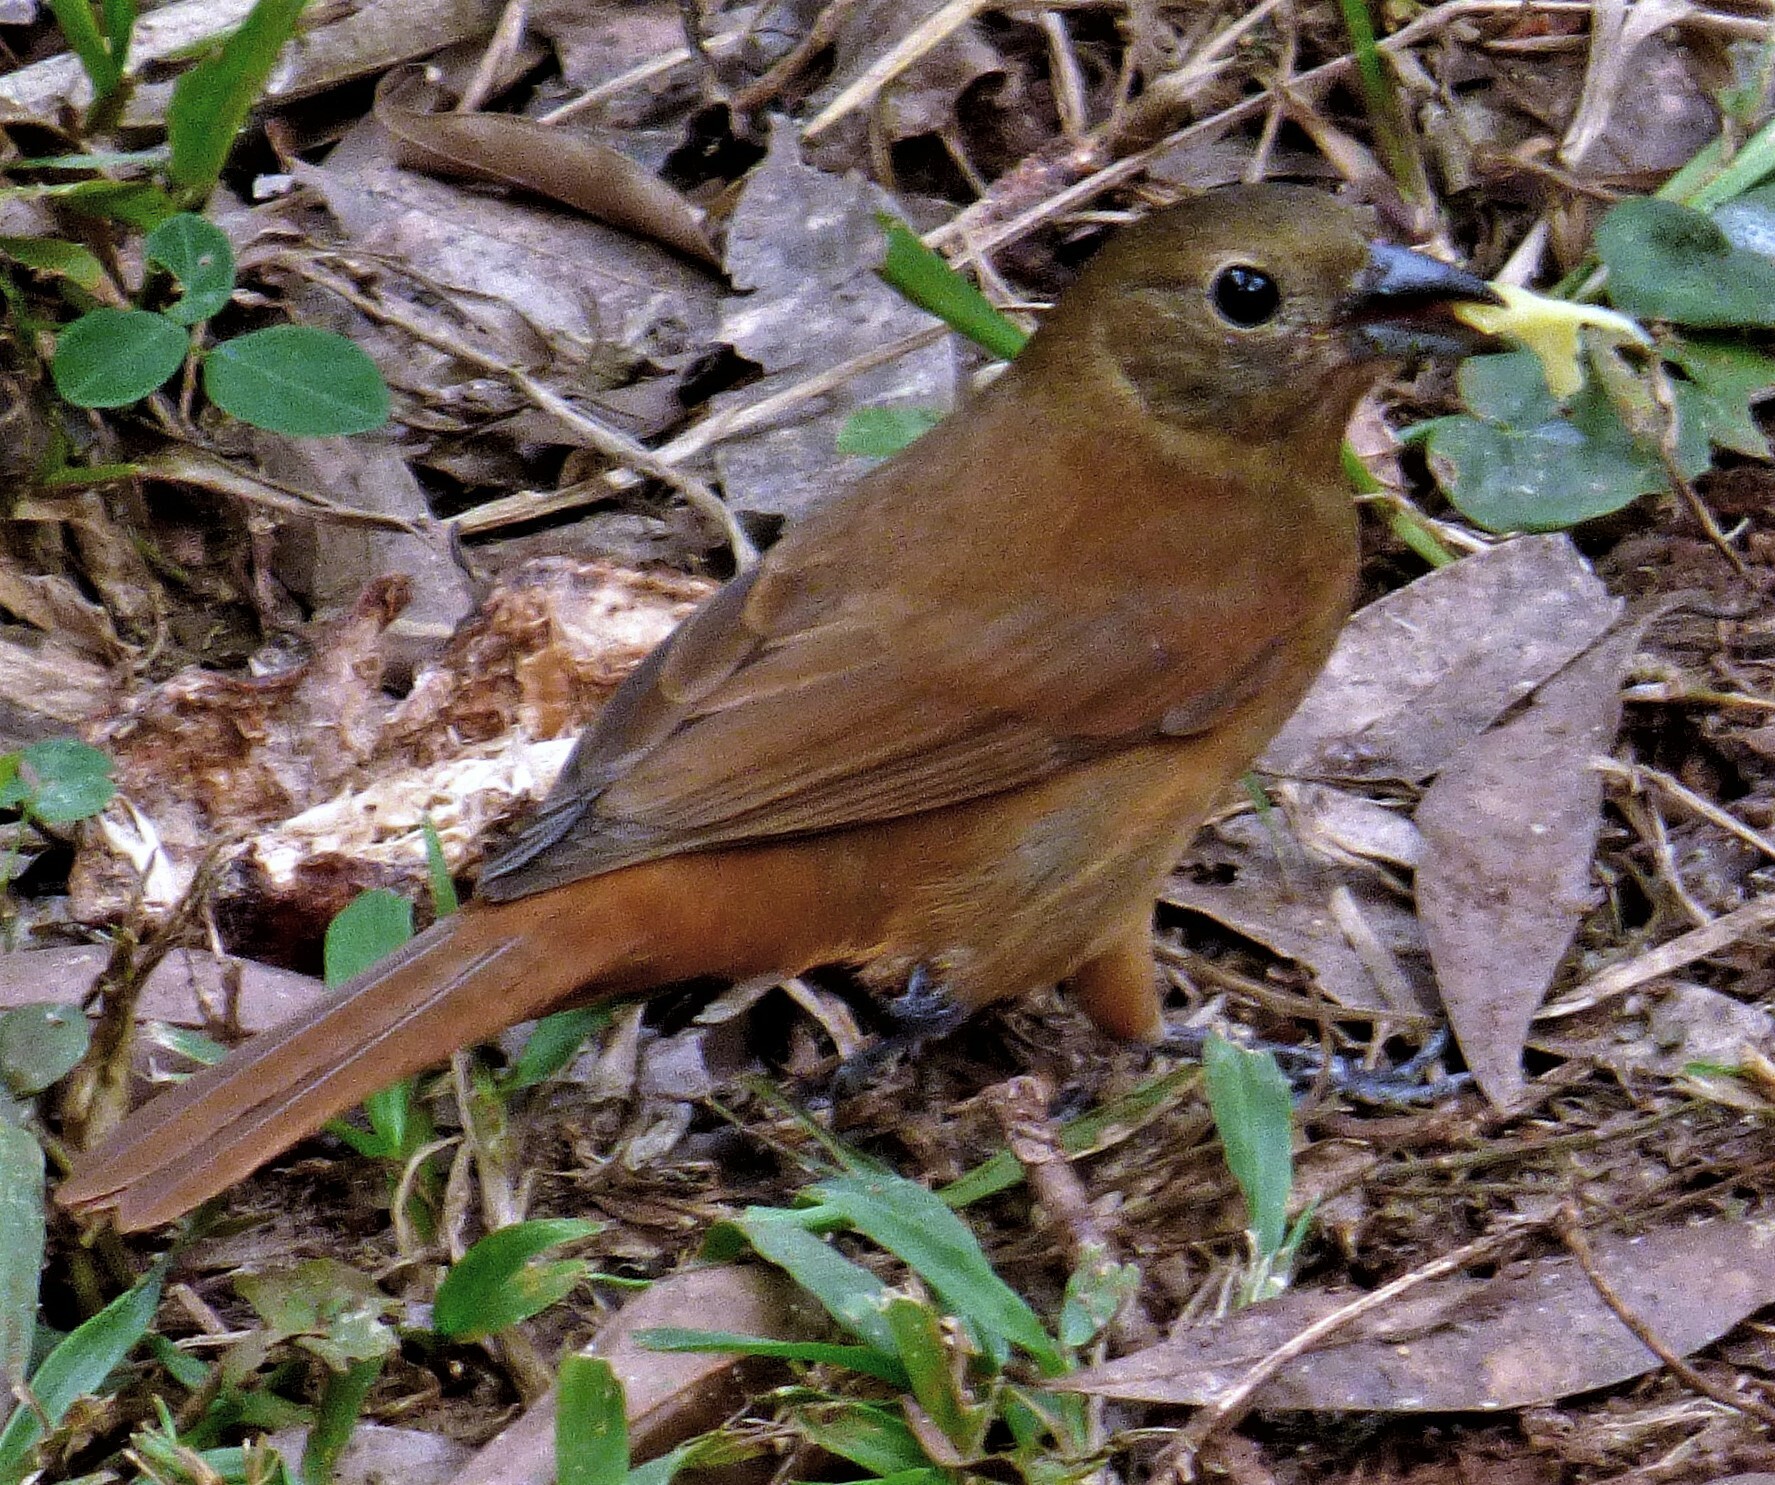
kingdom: Animalia
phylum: Chordata
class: Aves
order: Passeriformes
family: Thraupidae
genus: Tachyphonus
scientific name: Tachyphonus coronatus
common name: Ruby-crowned tanager
